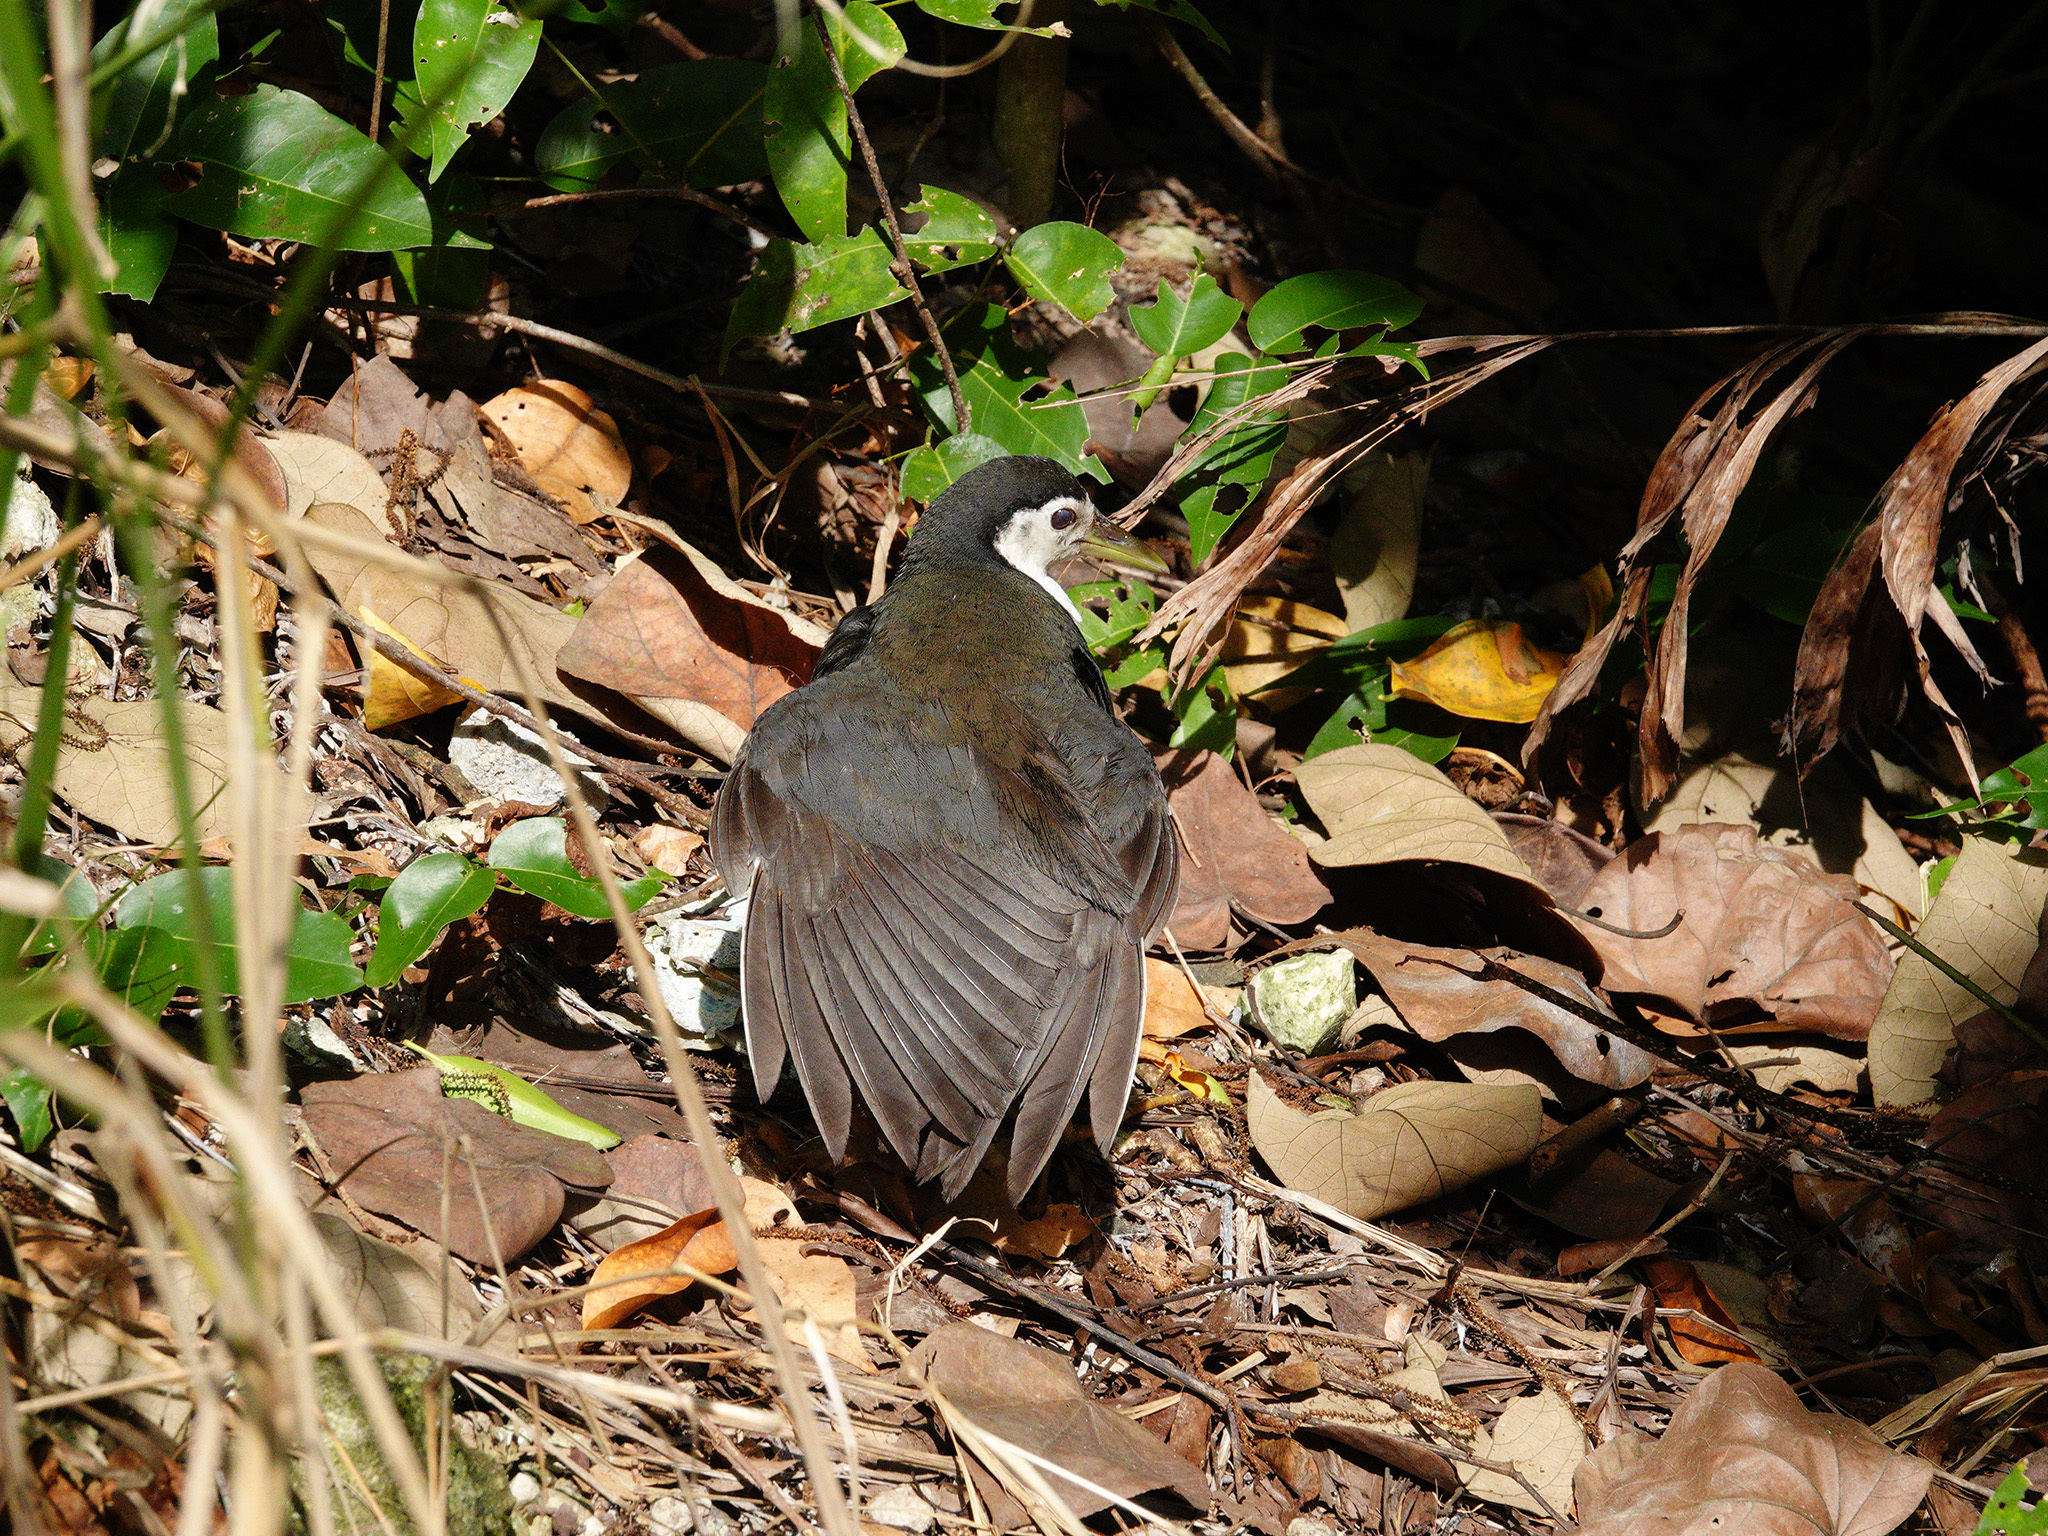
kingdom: Animalia
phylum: Chordata
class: Aves
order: Gruiformes
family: Rallidae
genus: Amaurornis
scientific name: Amaurornis phoenicurus
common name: White-breasted waterhen
